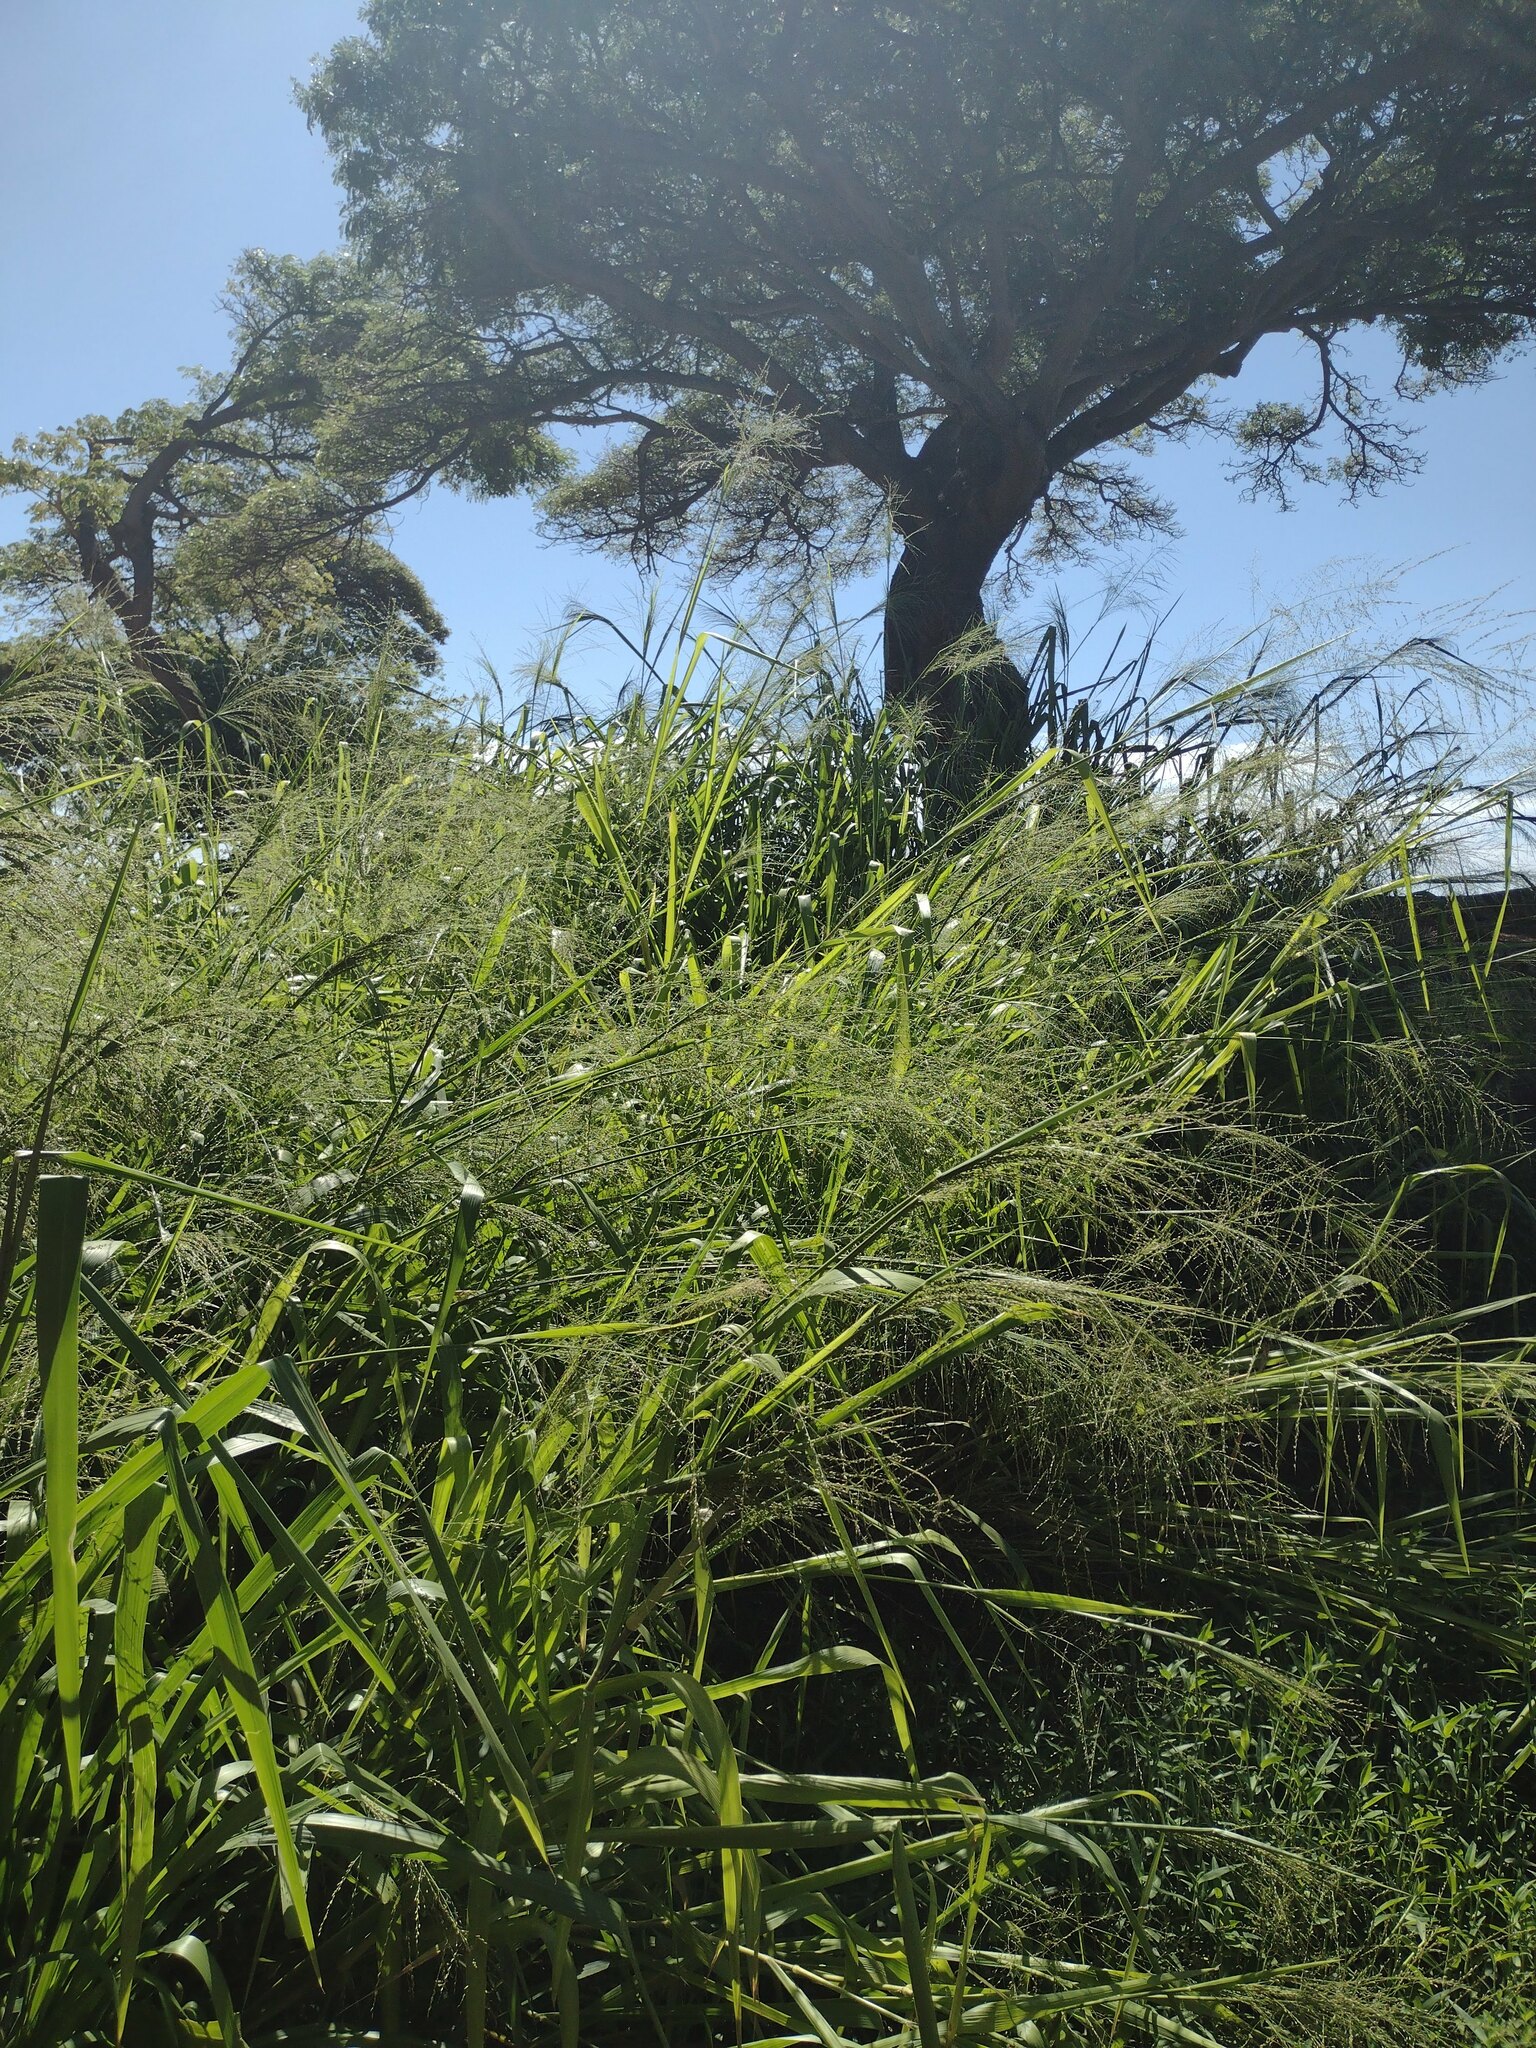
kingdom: Plantae
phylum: Tracheophyta
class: Liliopsida
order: Poales
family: Poaceae
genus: Megathyrsus
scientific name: Megathyrsus maximus
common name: Guineagrass
